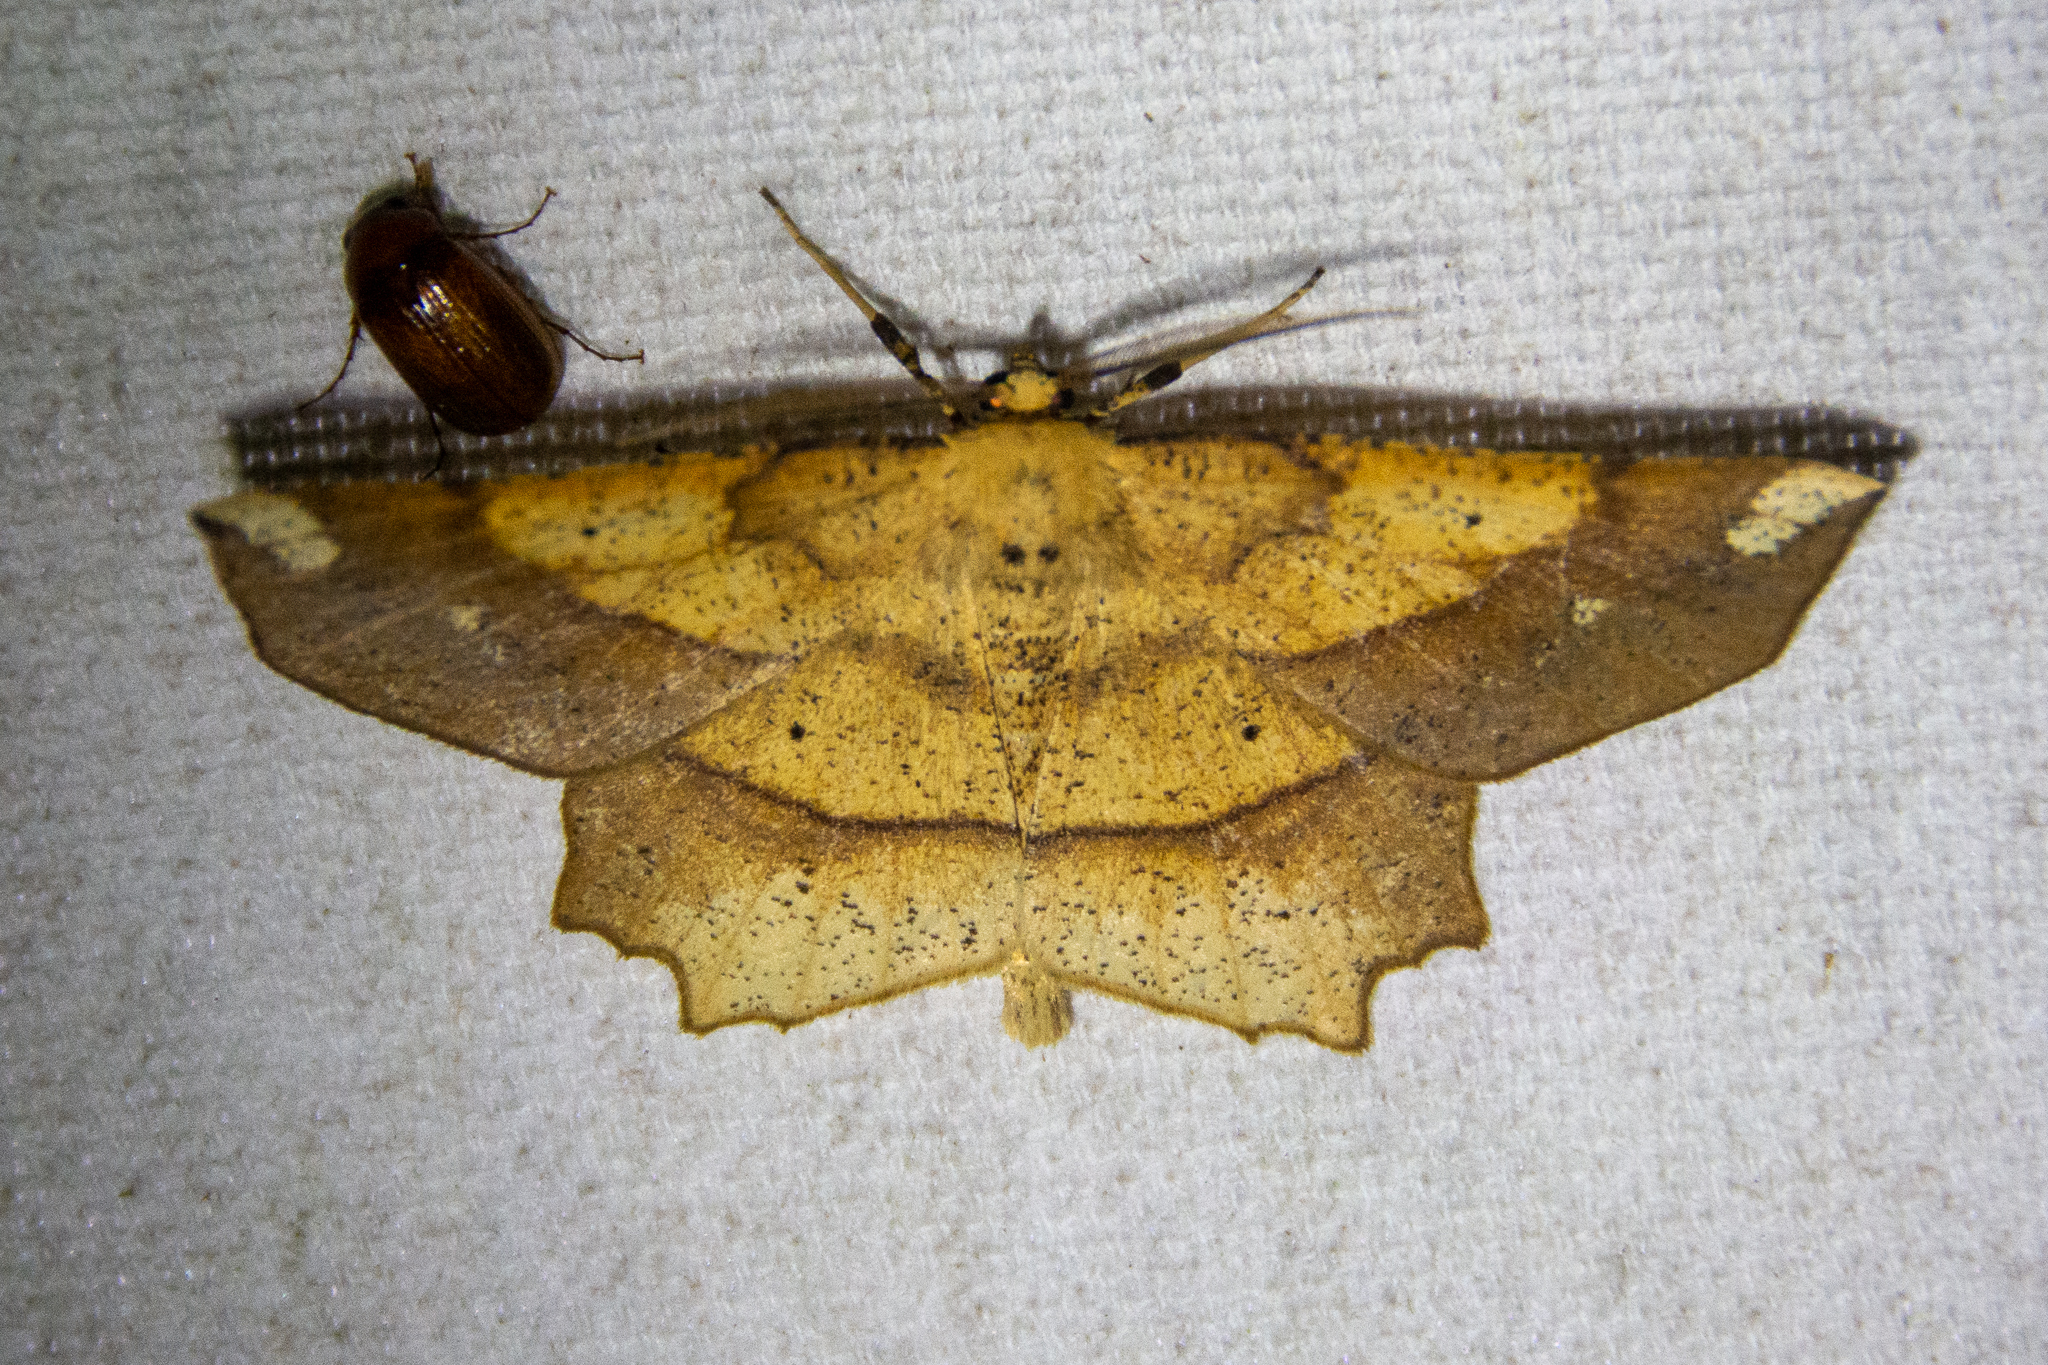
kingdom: Animalia
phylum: Arthropoda
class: Insecta
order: Lepidoptera
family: Geometridae
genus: Euchlaena
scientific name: Euchlaena amoenaria
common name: Deep yellow euchlaena
